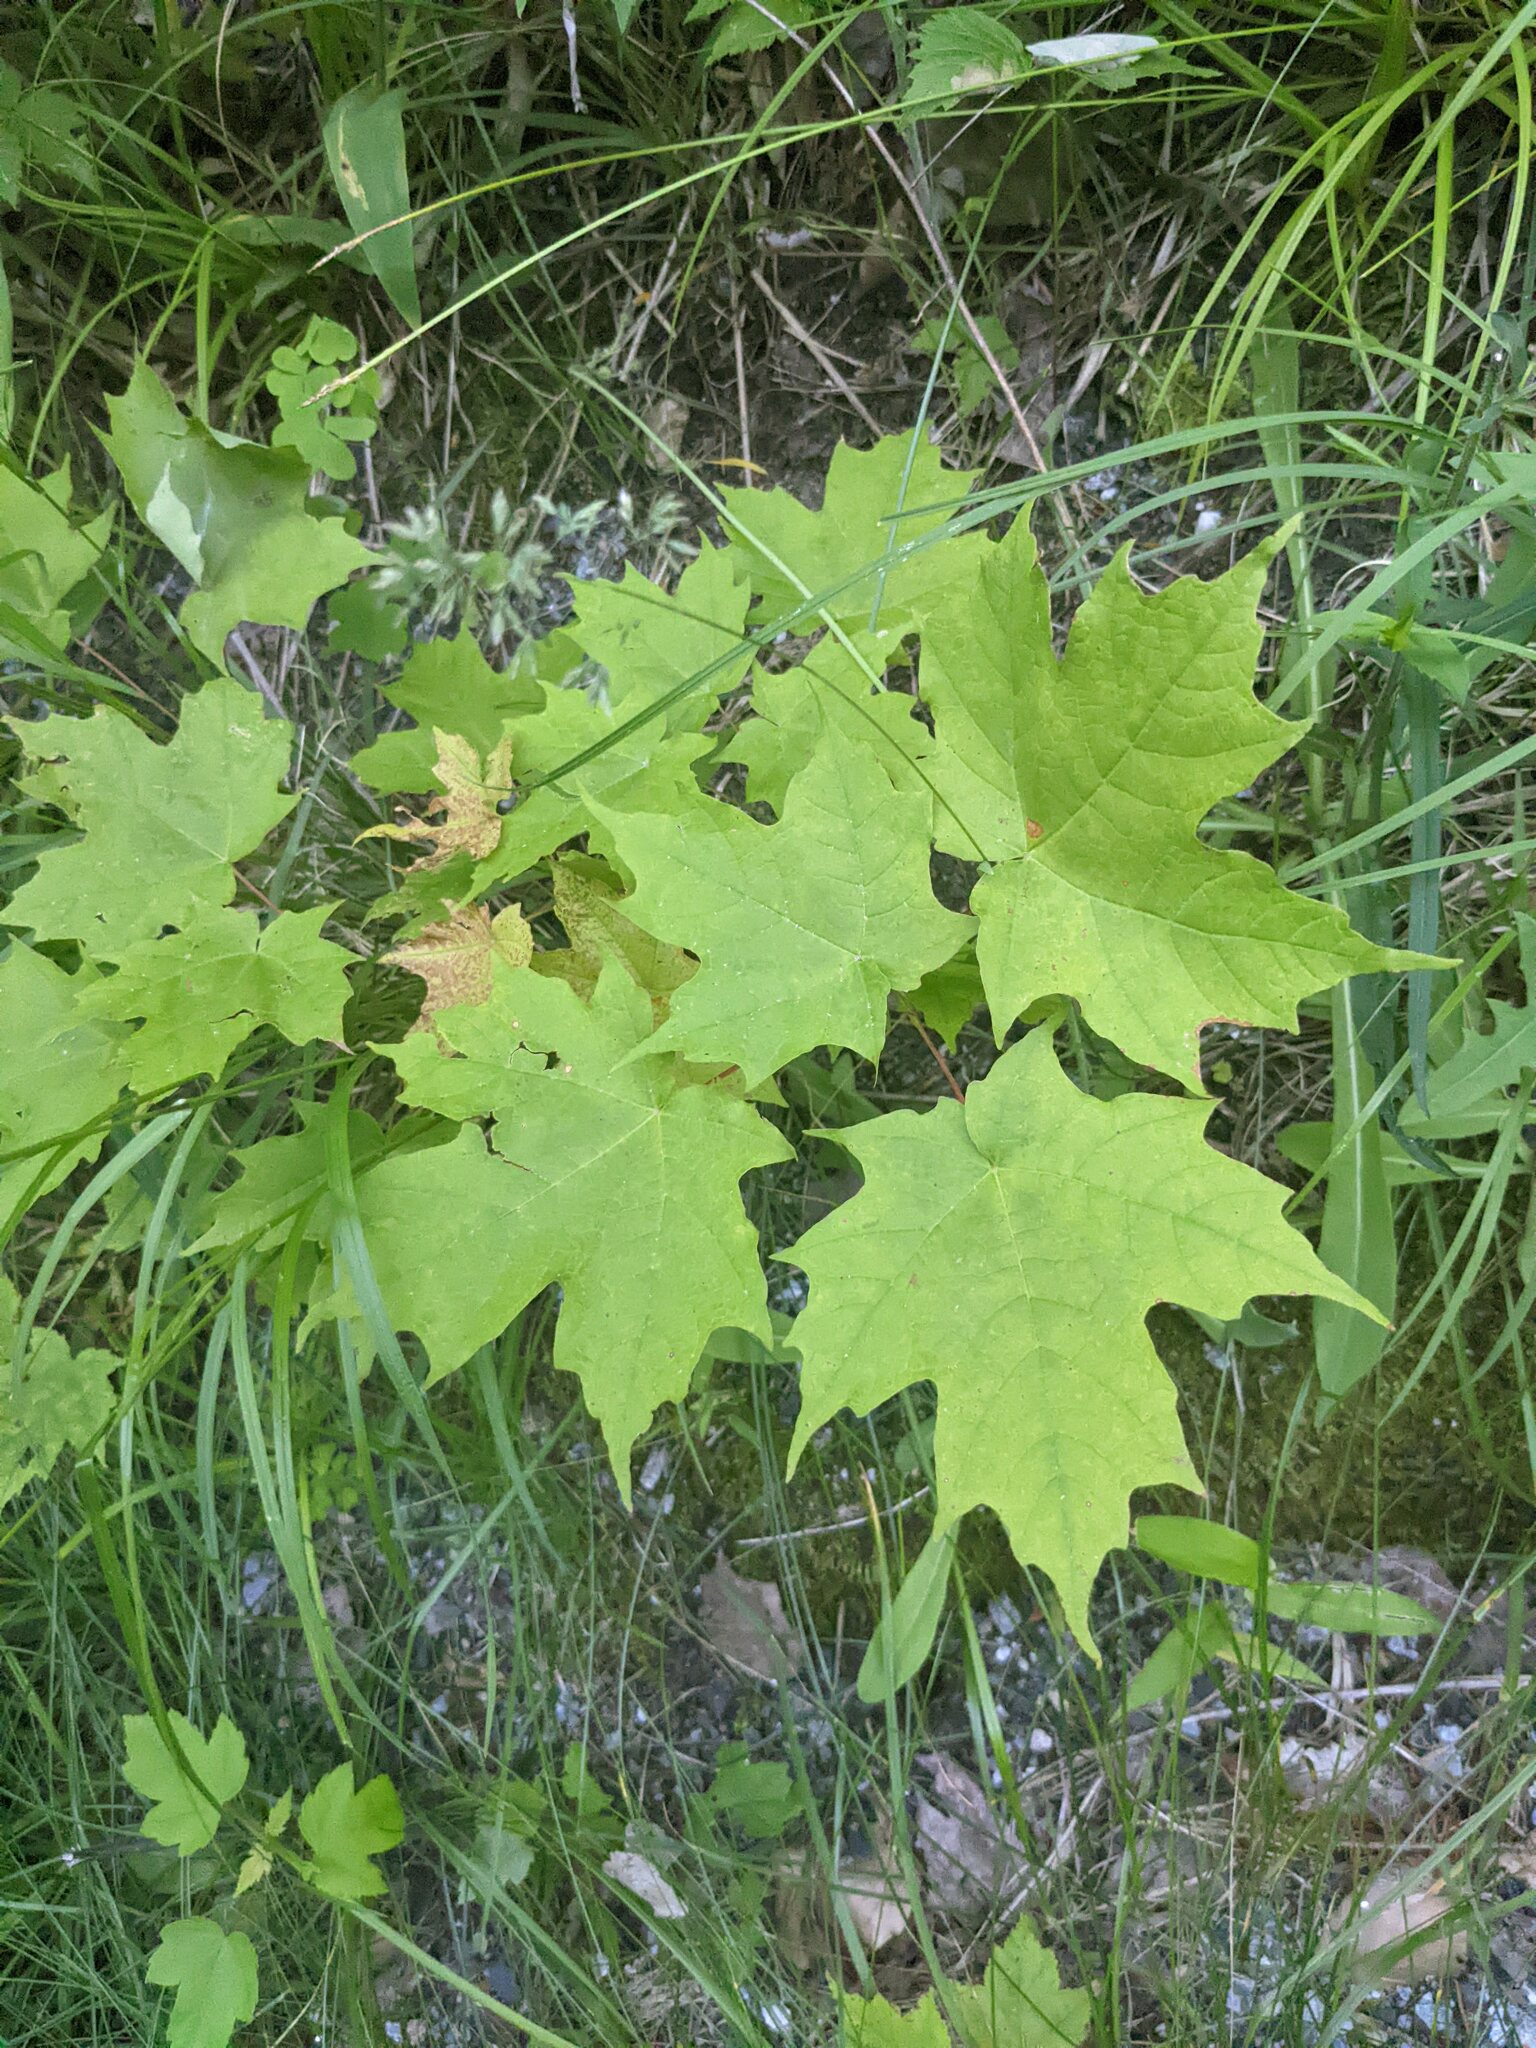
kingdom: Plantae
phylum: Tracheophyta
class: Magnoliopsida
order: Sapindales
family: Sapindaceae
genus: Acer
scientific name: Acer saccharum
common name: Sugar maple
